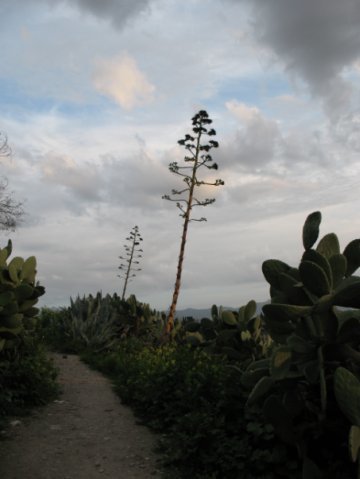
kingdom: Plantae
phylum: Tracheophyta
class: Liliopsida
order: Asparagales
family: Asparagaceae
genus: Agave
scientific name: Agave americana
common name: Centuryplant
